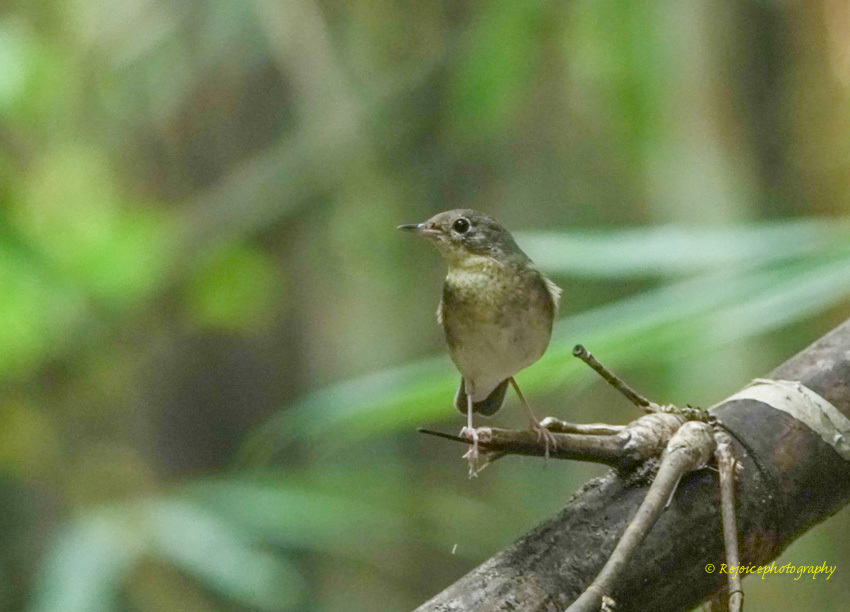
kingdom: Animalia
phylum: Chordata
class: Aves
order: Passeriformes
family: Muscicapidae
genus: Luscinia
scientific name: Luscinia cyane
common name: Siberian blue robin
